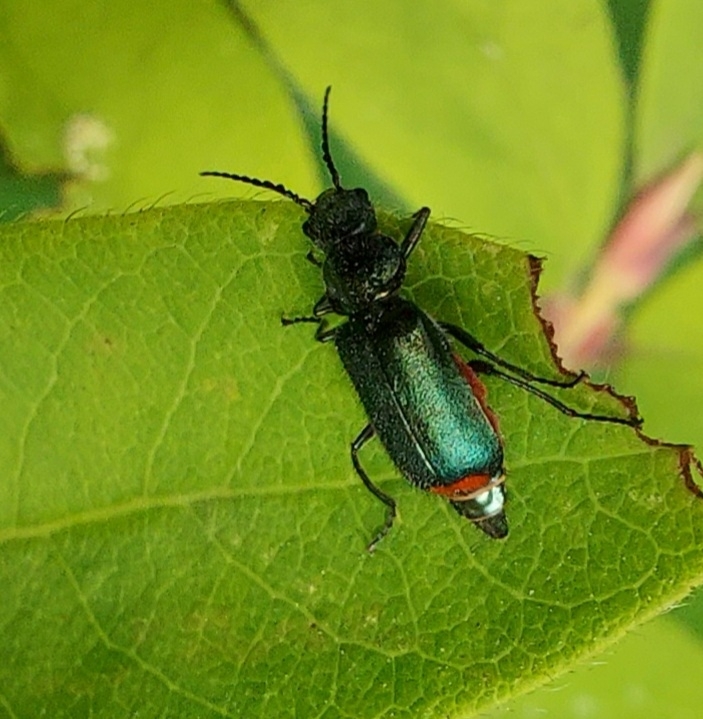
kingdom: Animalia
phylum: Arthropoda
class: Insecta
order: Coleoptera
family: Melyridae
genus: Malachius
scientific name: Malachius bipustulatus
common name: Malachite beetle
